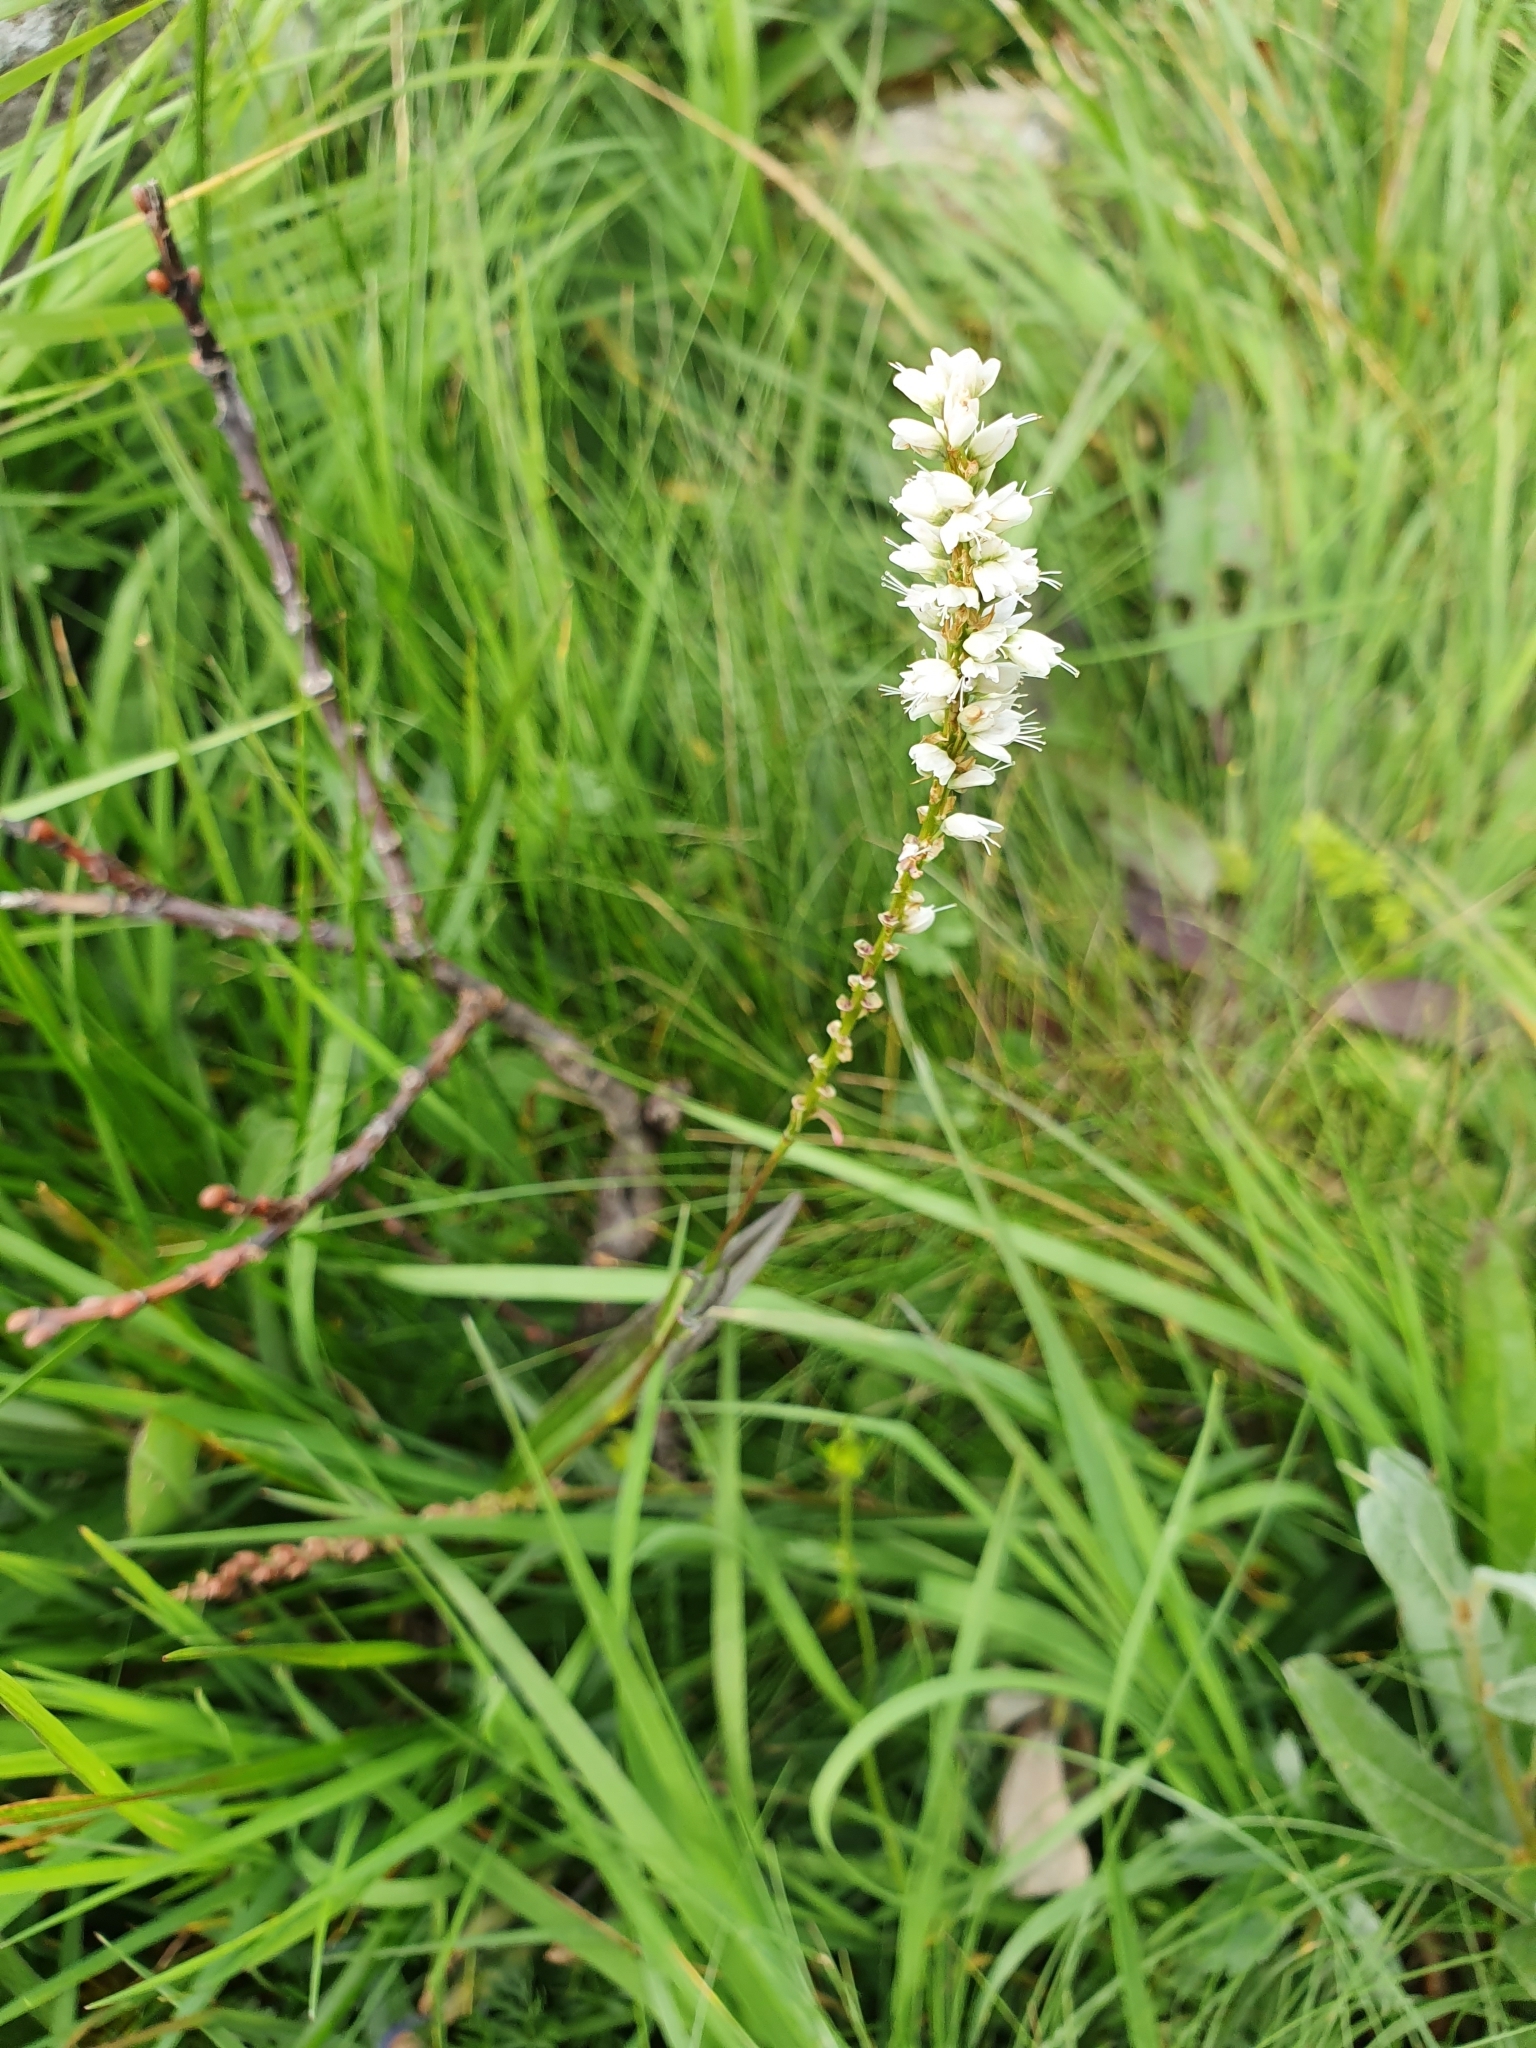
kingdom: Plantae
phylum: Tracheophyta
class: Magnoliopsida
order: Caryophyllales
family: Polygonaceae
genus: Bistorta
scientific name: Bistorta vivipara
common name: Alpine bistort
